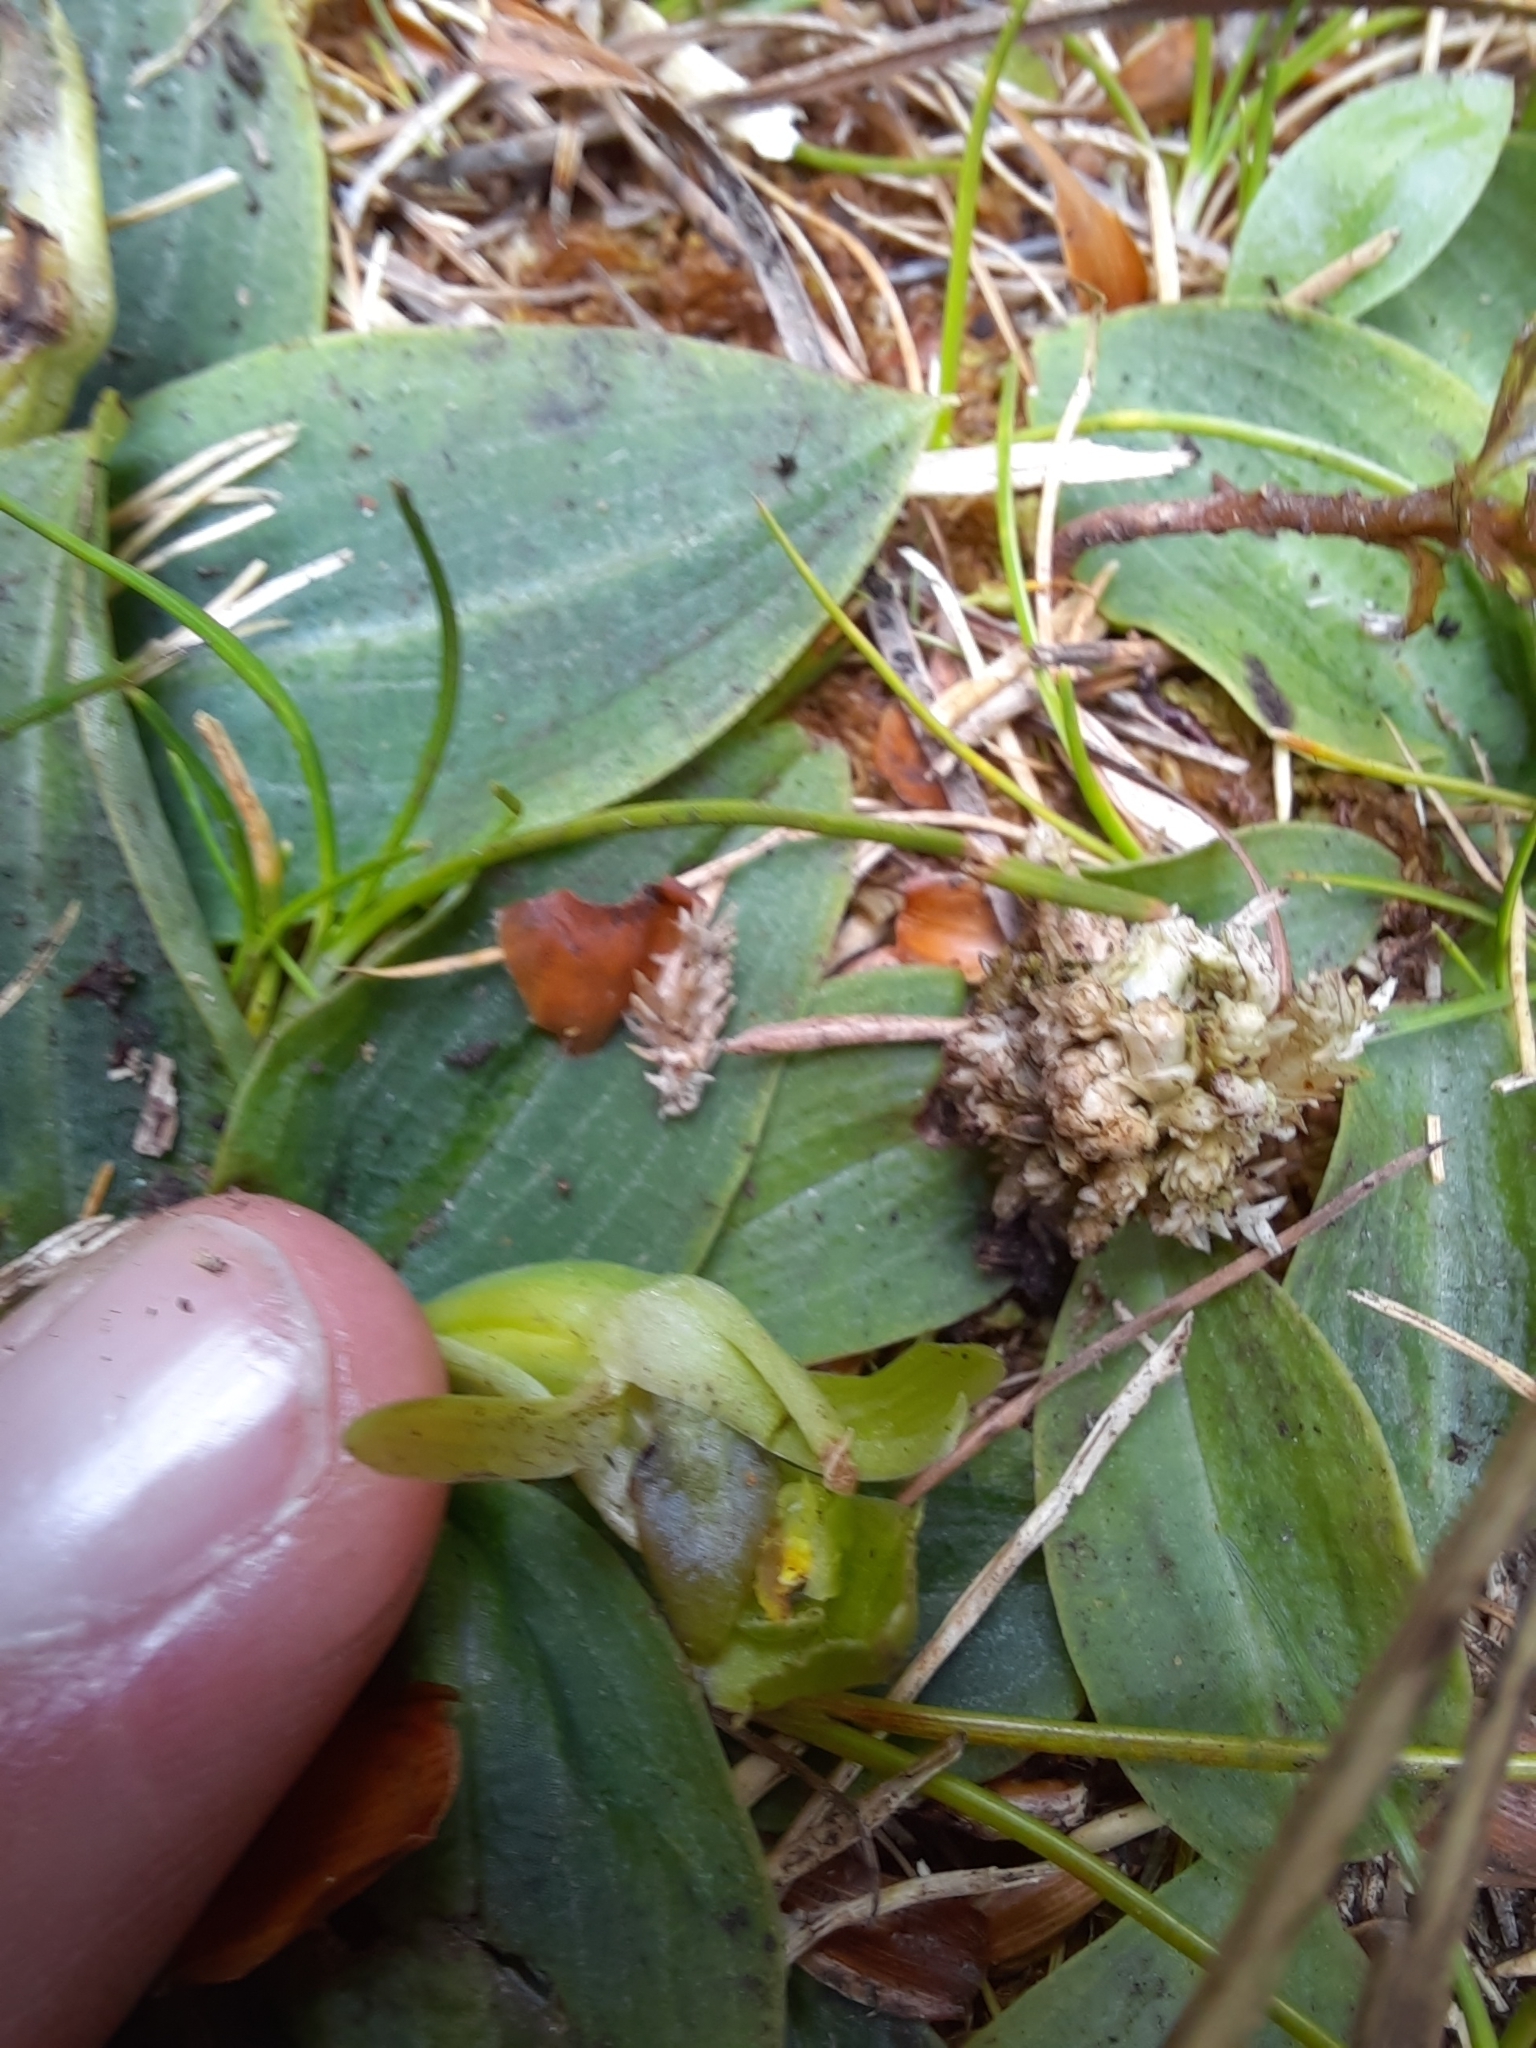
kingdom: Plantae
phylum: Tracheophyta
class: Liliopsida
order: Asparagales
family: Orchidaceae
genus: Chiloglottis
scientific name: Chiloglottis cornuta
